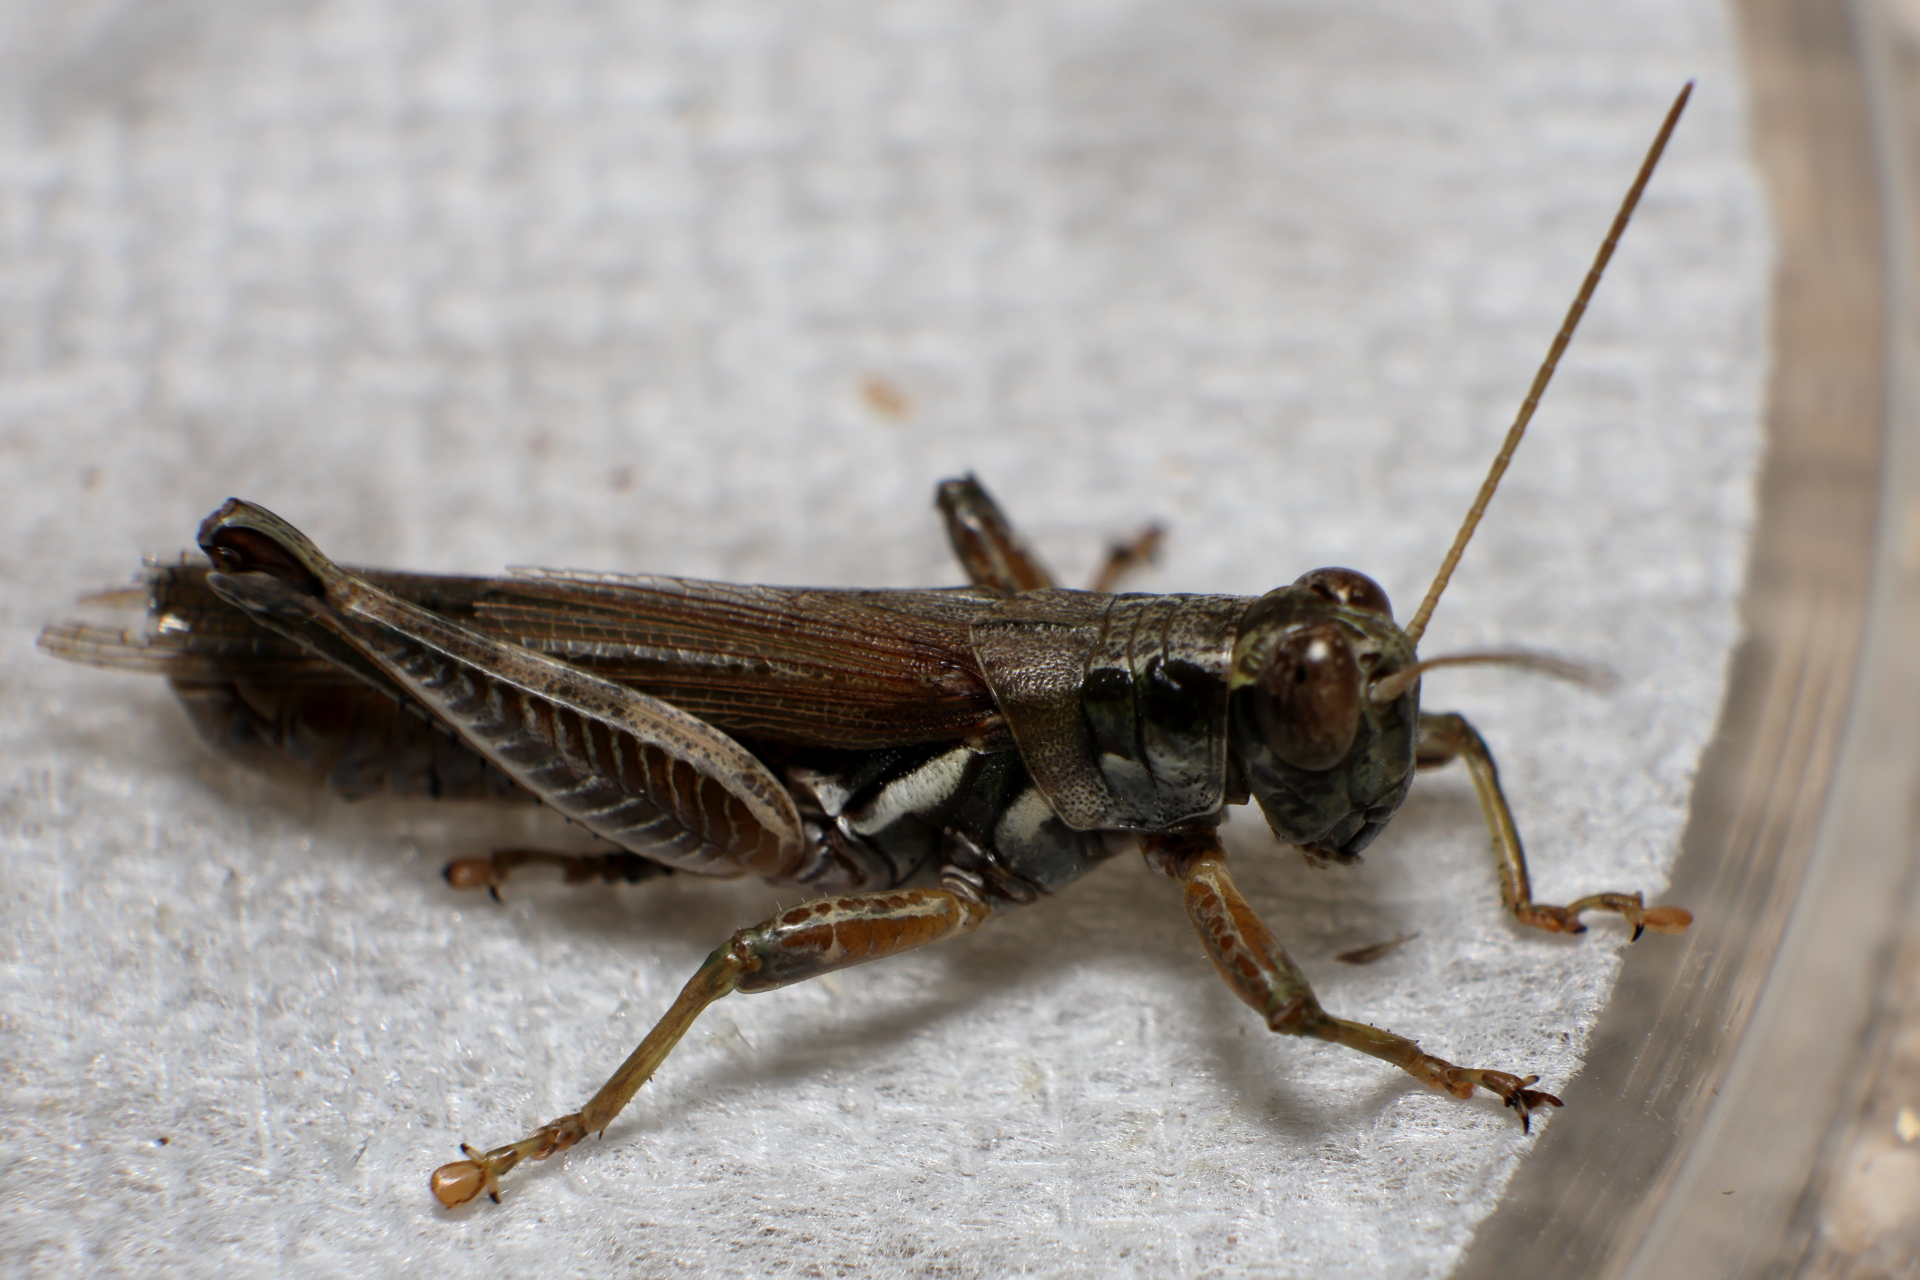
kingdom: Animalia
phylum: Arthropoda
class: Insecta
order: Orthoptera
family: Acrididae
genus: Melanoplus
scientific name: Melanoplus pictus
